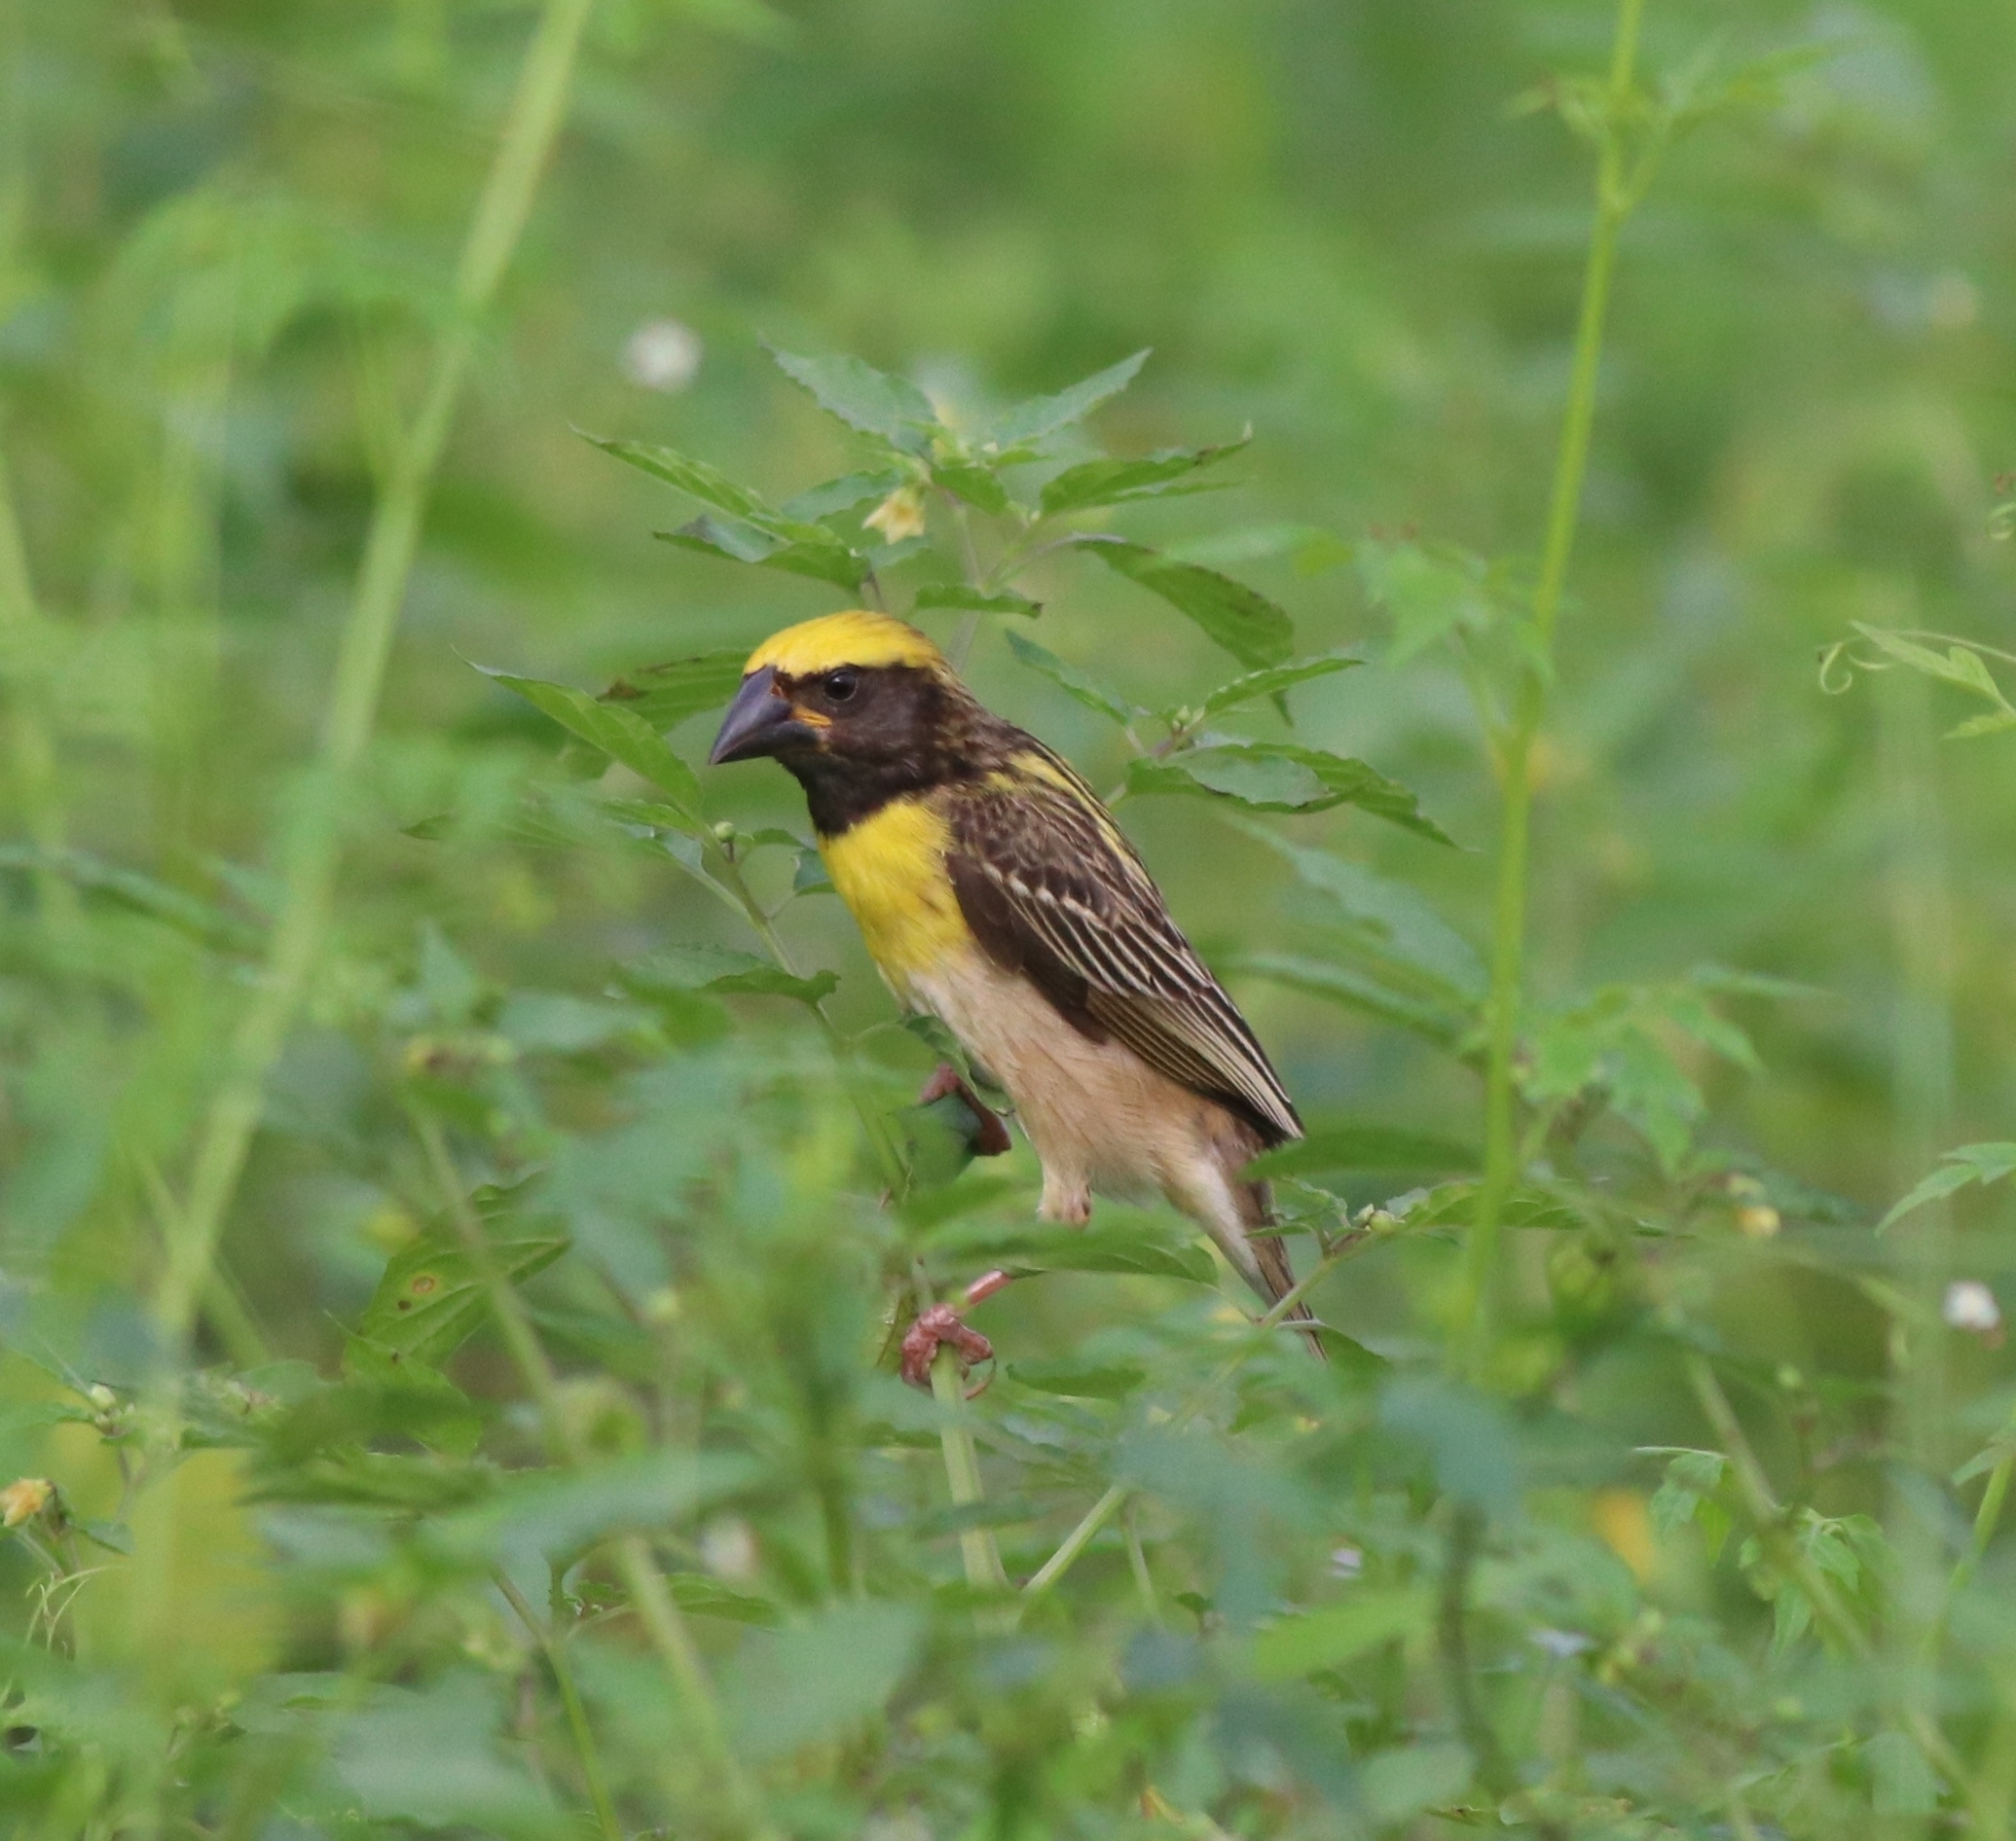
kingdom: Animalia
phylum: Chordata
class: Aves
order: Passeriformes
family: Ploceidae
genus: Ploceus
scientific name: Ploceus philippinus
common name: Baya weaver
